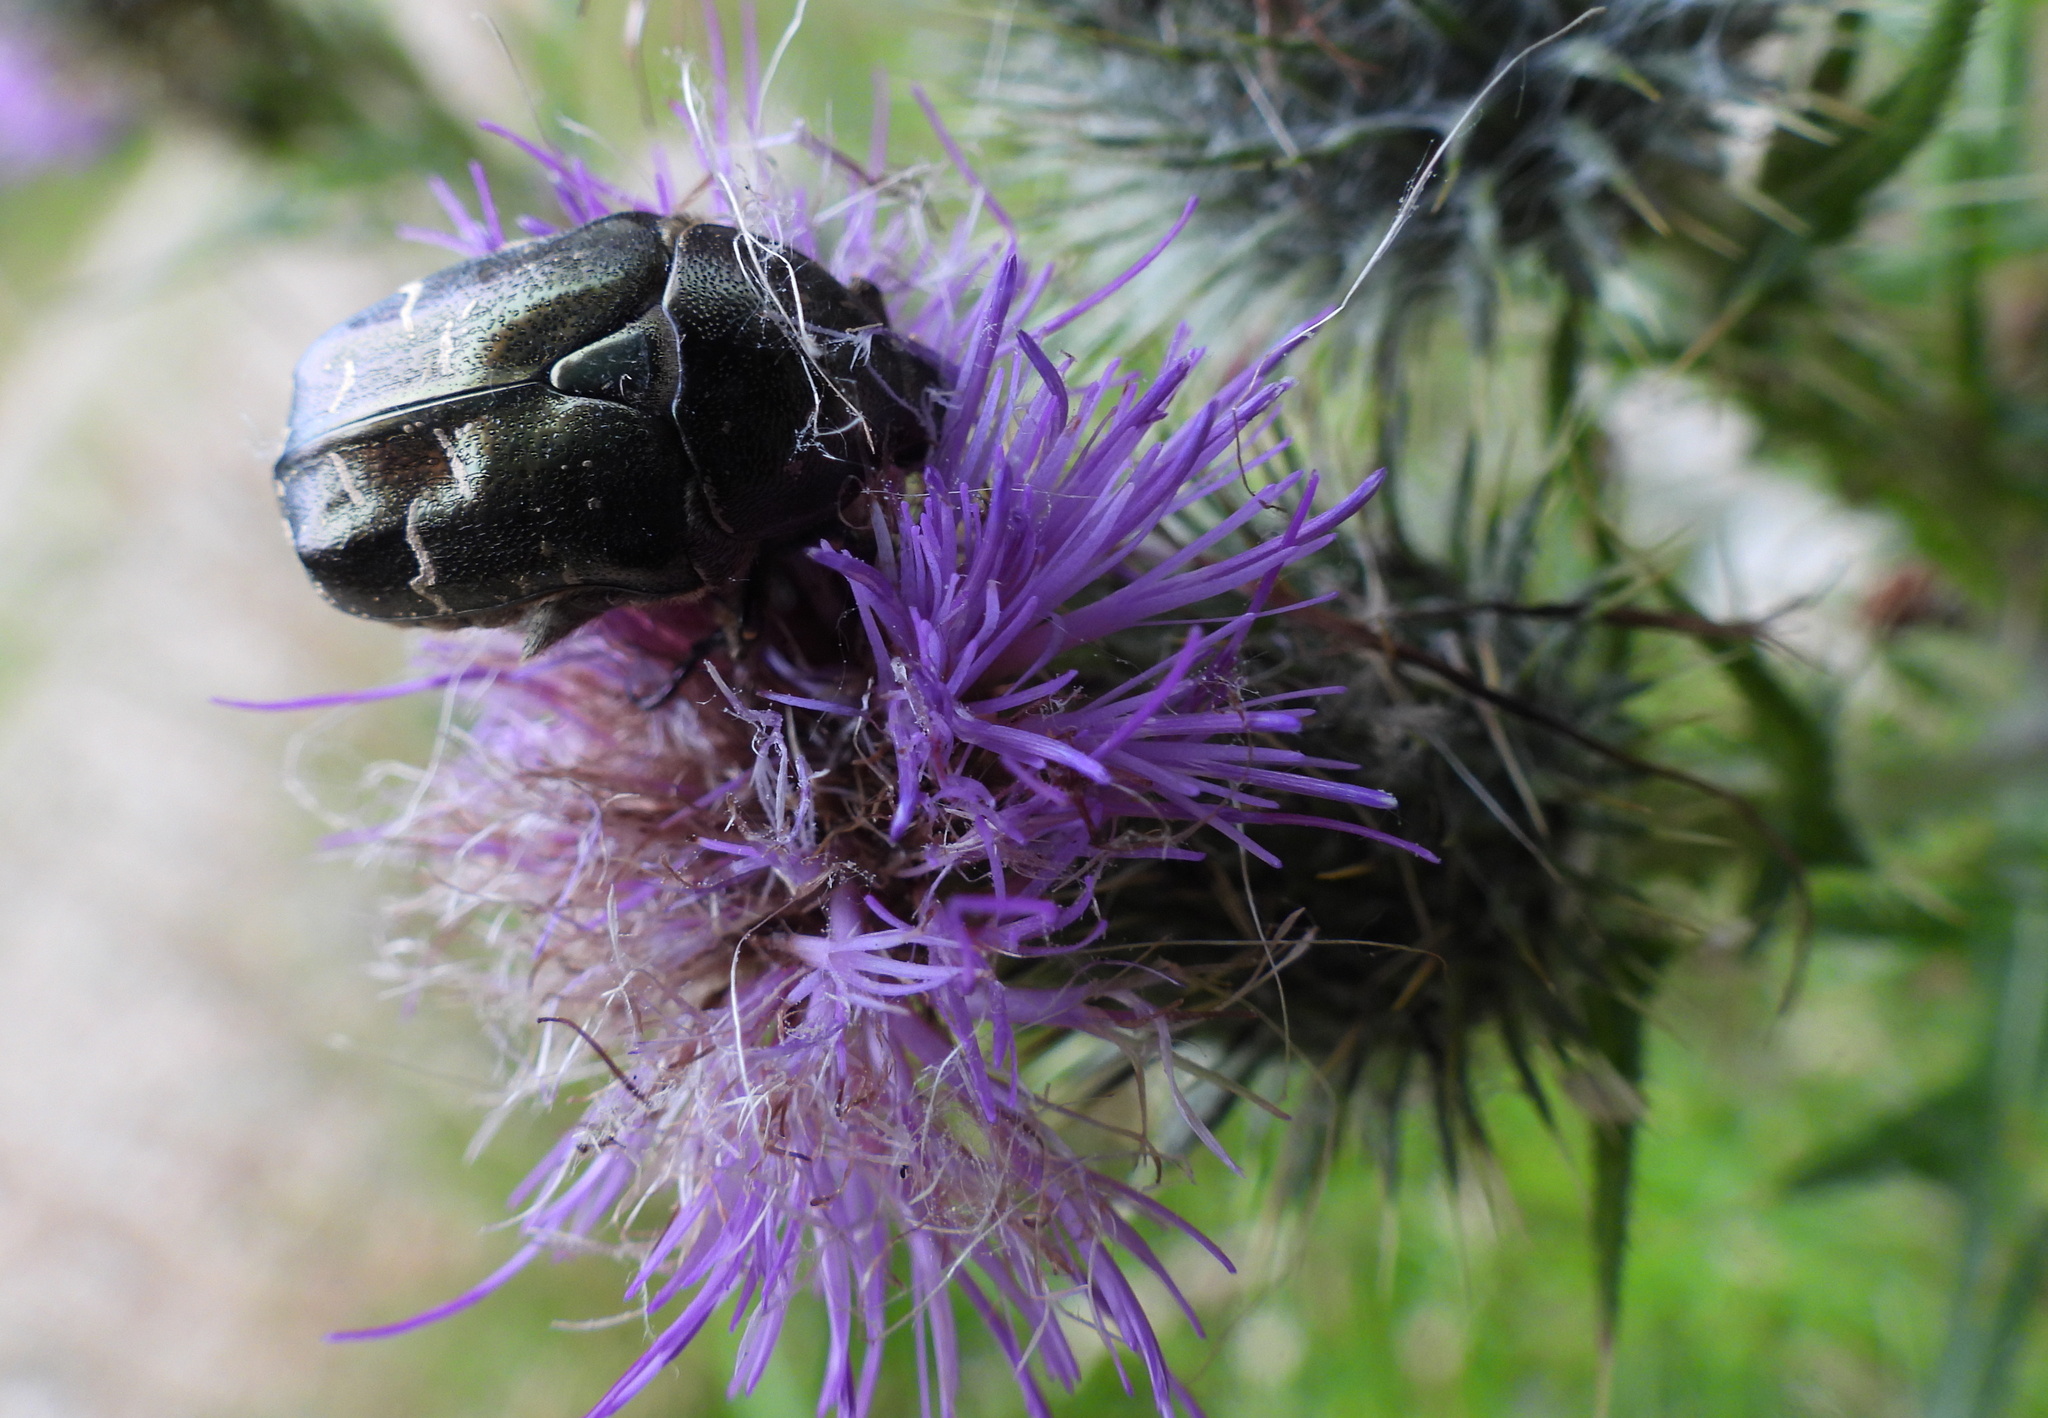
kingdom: Animalia
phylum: Arthropoda
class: Insecta
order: Coleoptera
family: Scarabaeidae
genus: Protaetia
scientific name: Protaetia cuprea
